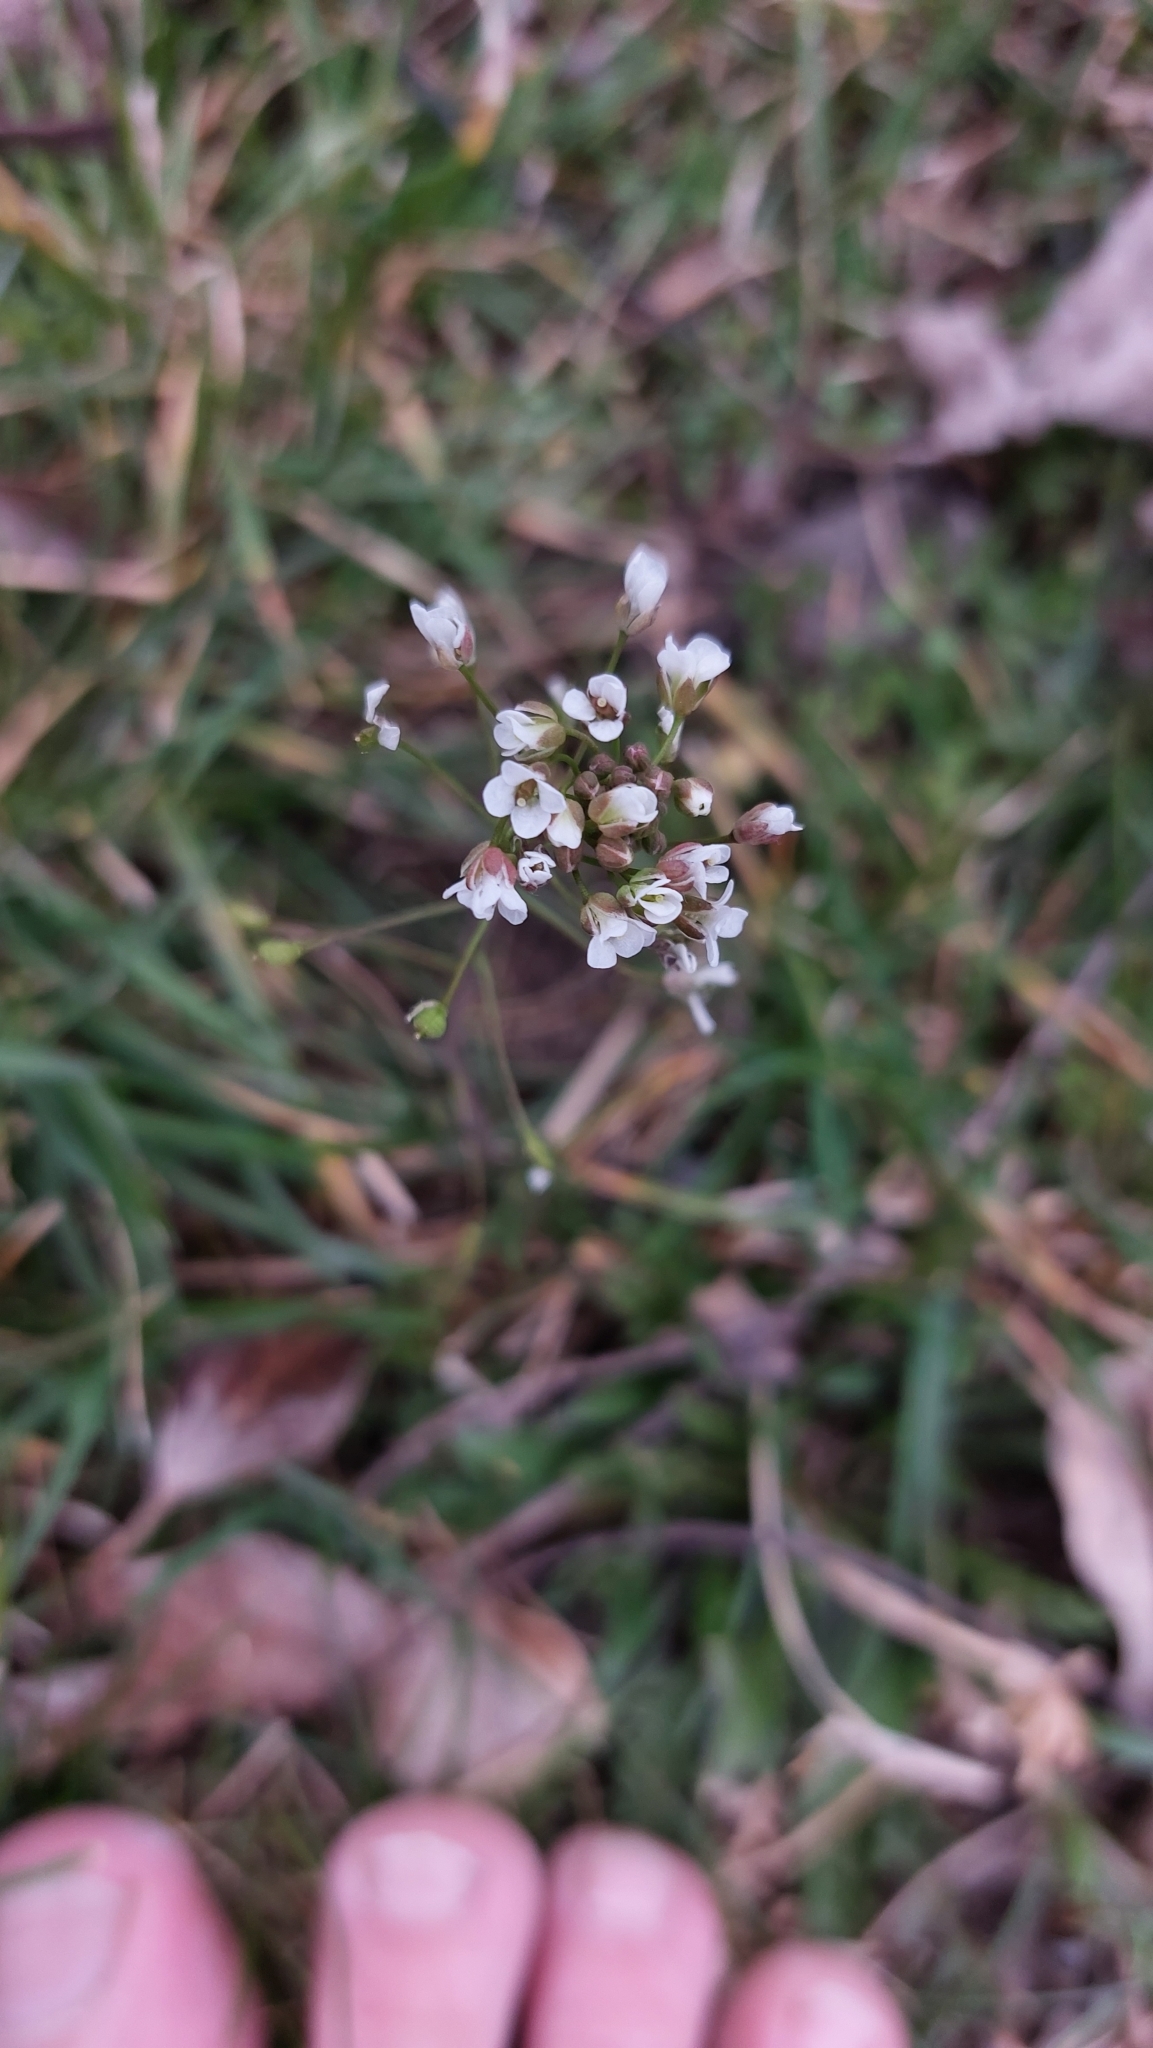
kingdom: Plantae
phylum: Tracheophyta
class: Magnoliopsida
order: Brassicales
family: Brassicaceae
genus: Capsella
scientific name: Capsella bursa-pastoris
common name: Shepherd's purse
